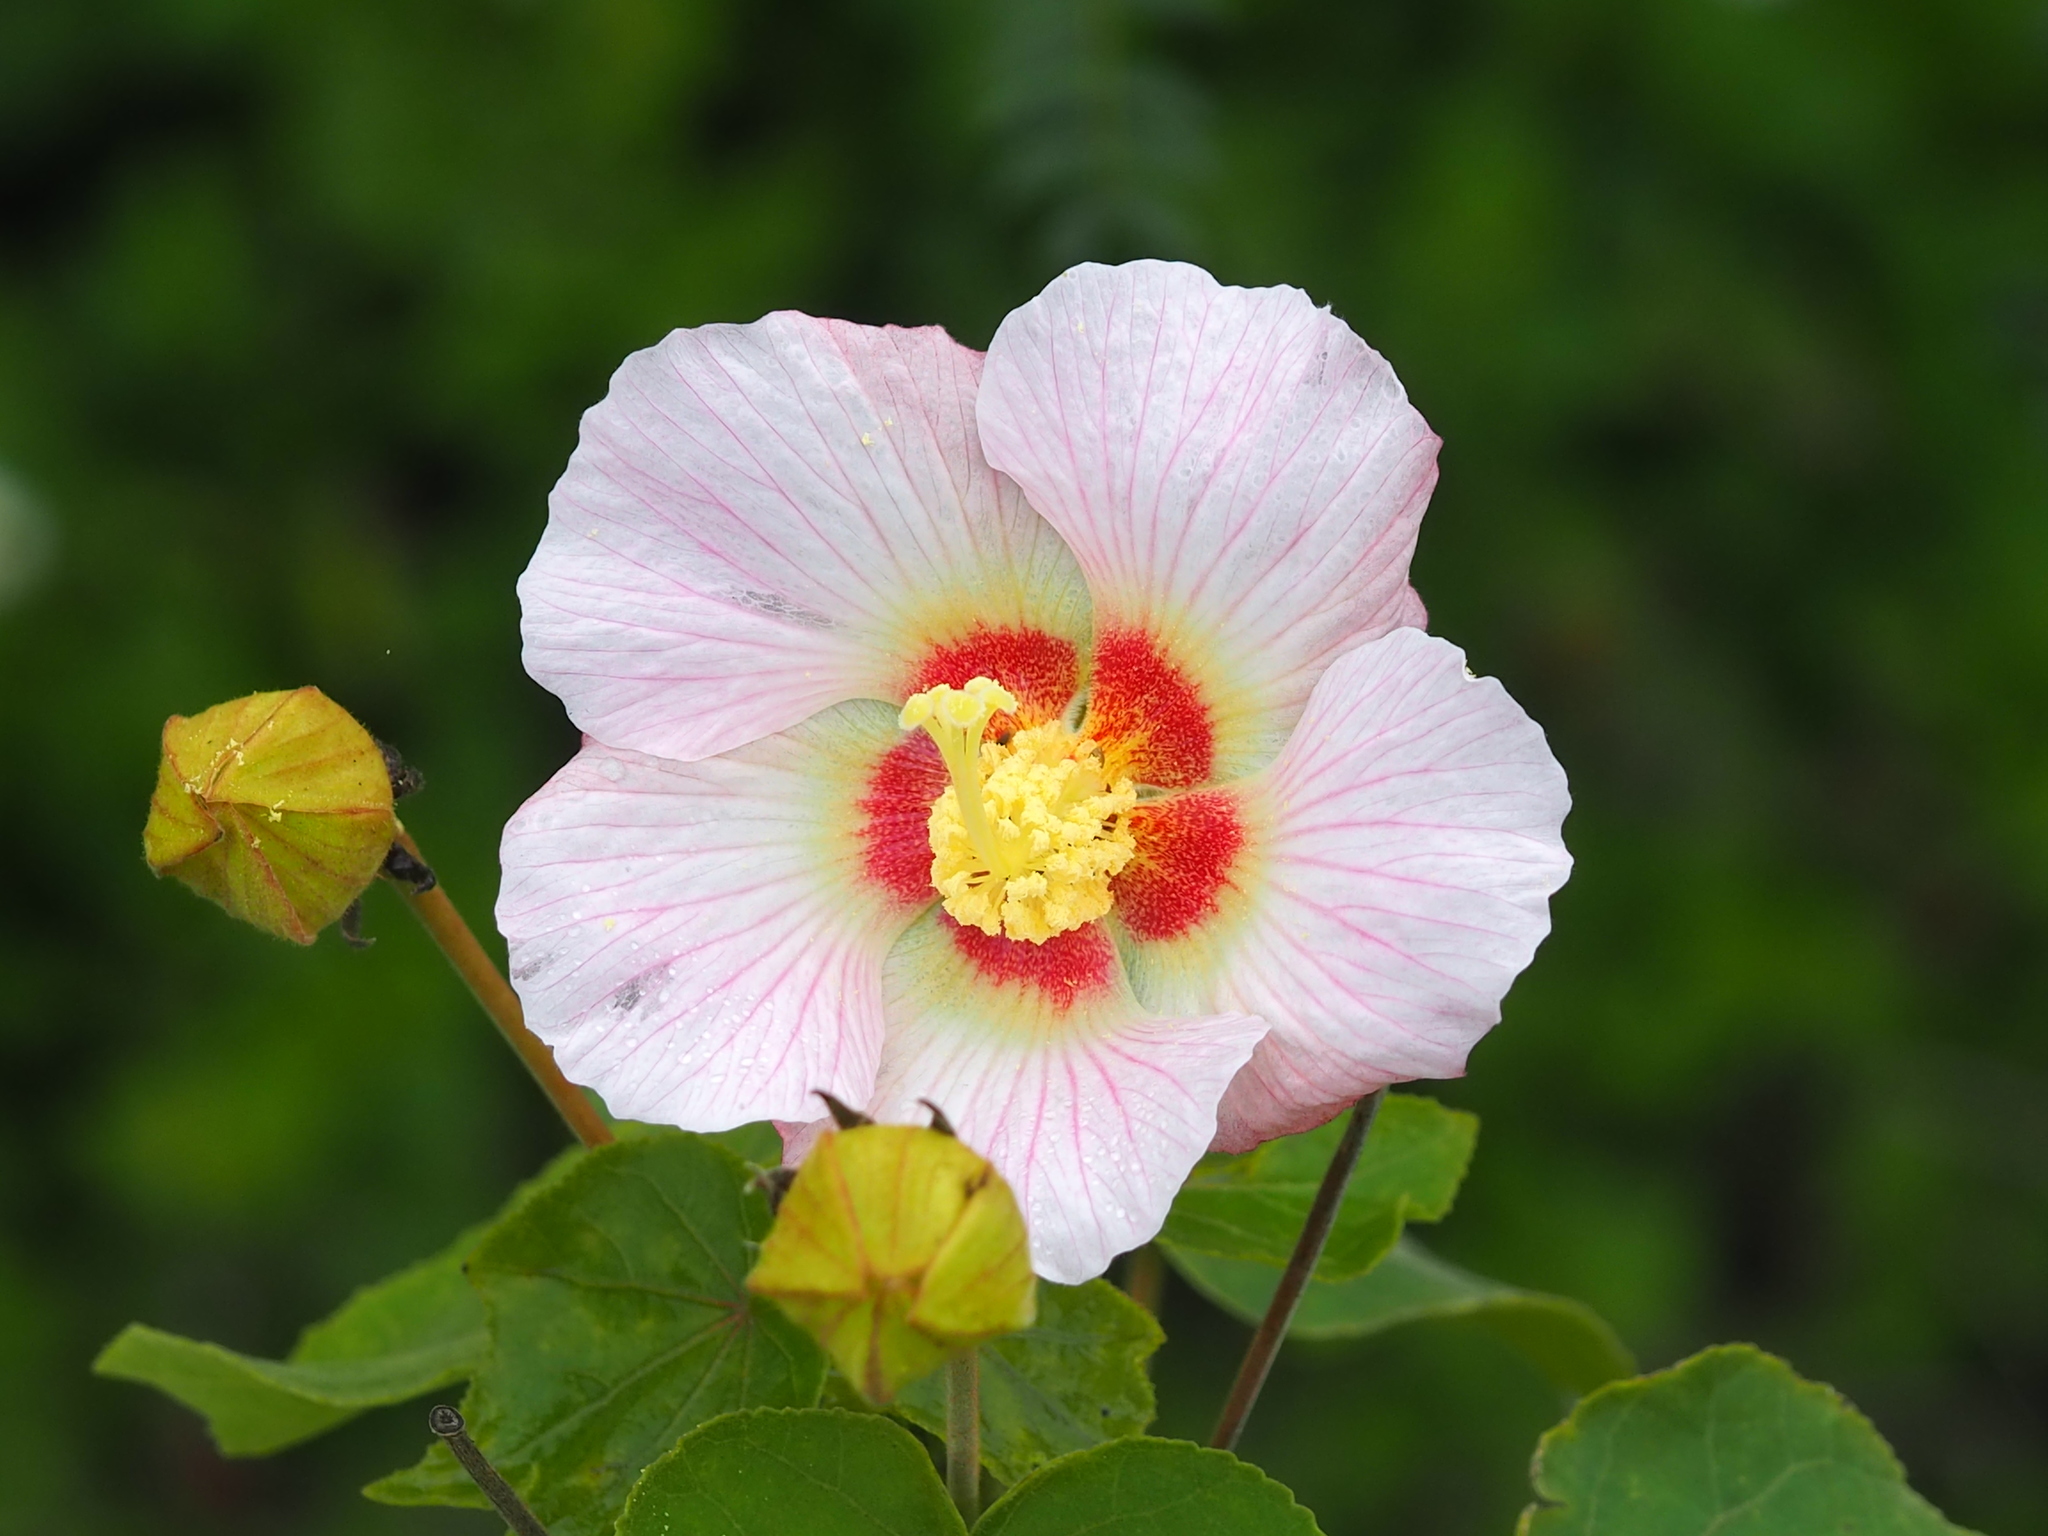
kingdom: Plantae
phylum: Tracheophyta
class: Magnoliopsida
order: Malvales
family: Malvaceae
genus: Hibiscus
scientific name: Hibiscus taiwanensis
